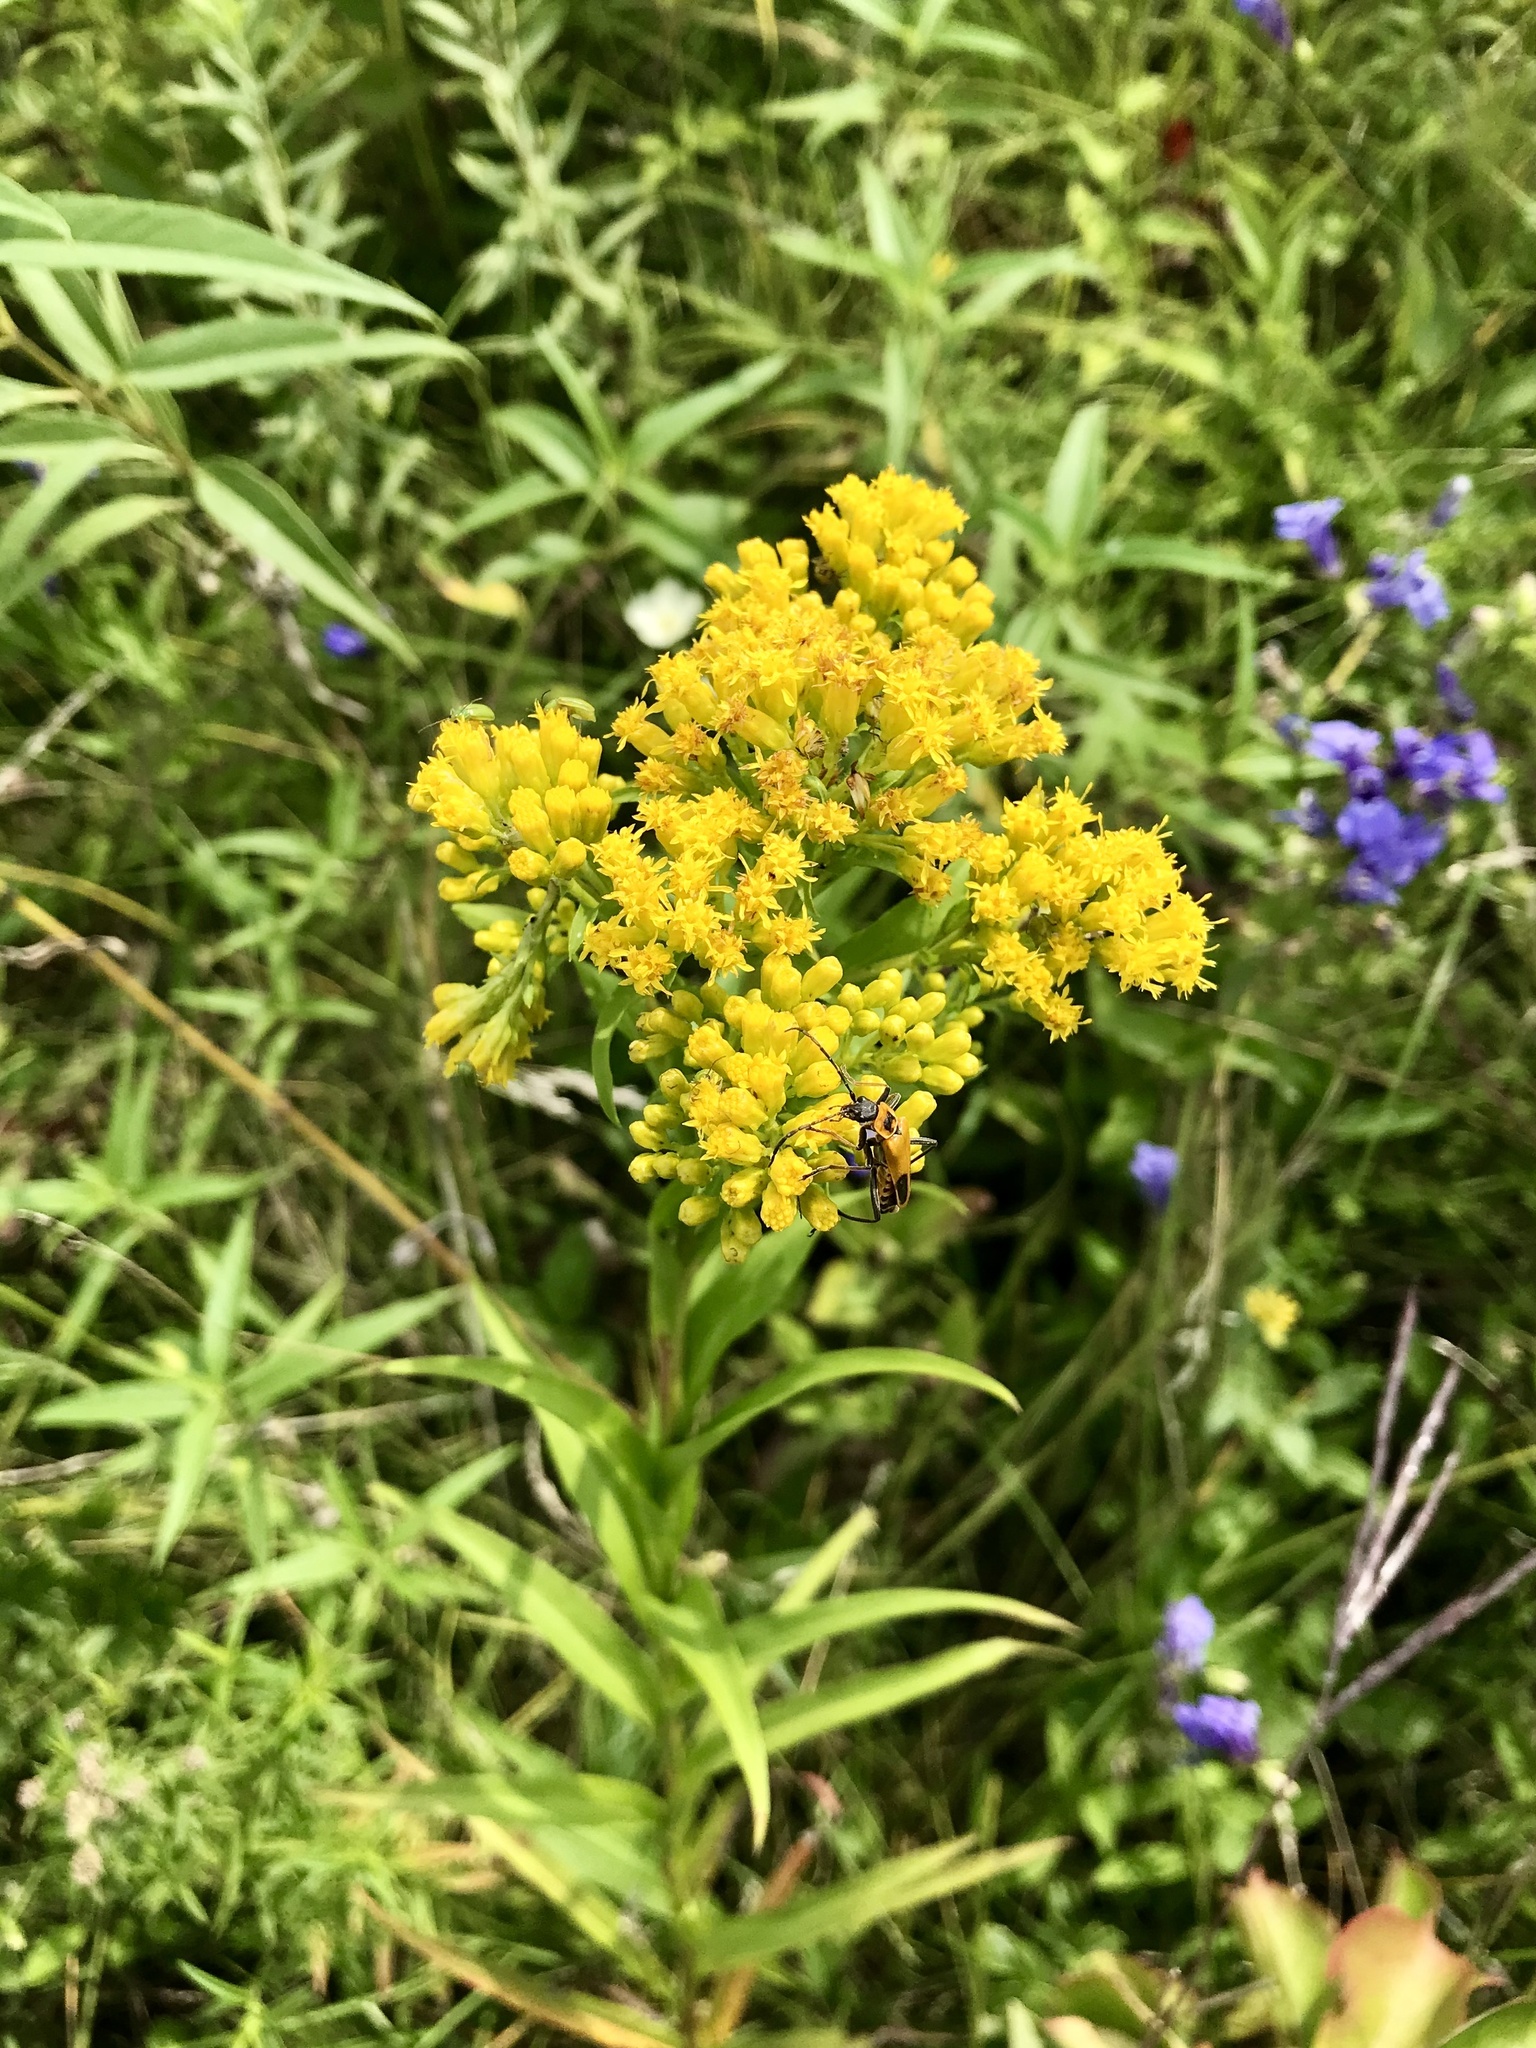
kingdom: Plantae
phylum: Tracheophyta
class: Magnoliopsida
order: Asterales
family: Asteraceae
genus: Solidago
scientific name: Solidago riddellii
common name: Riddell's goldenrod
